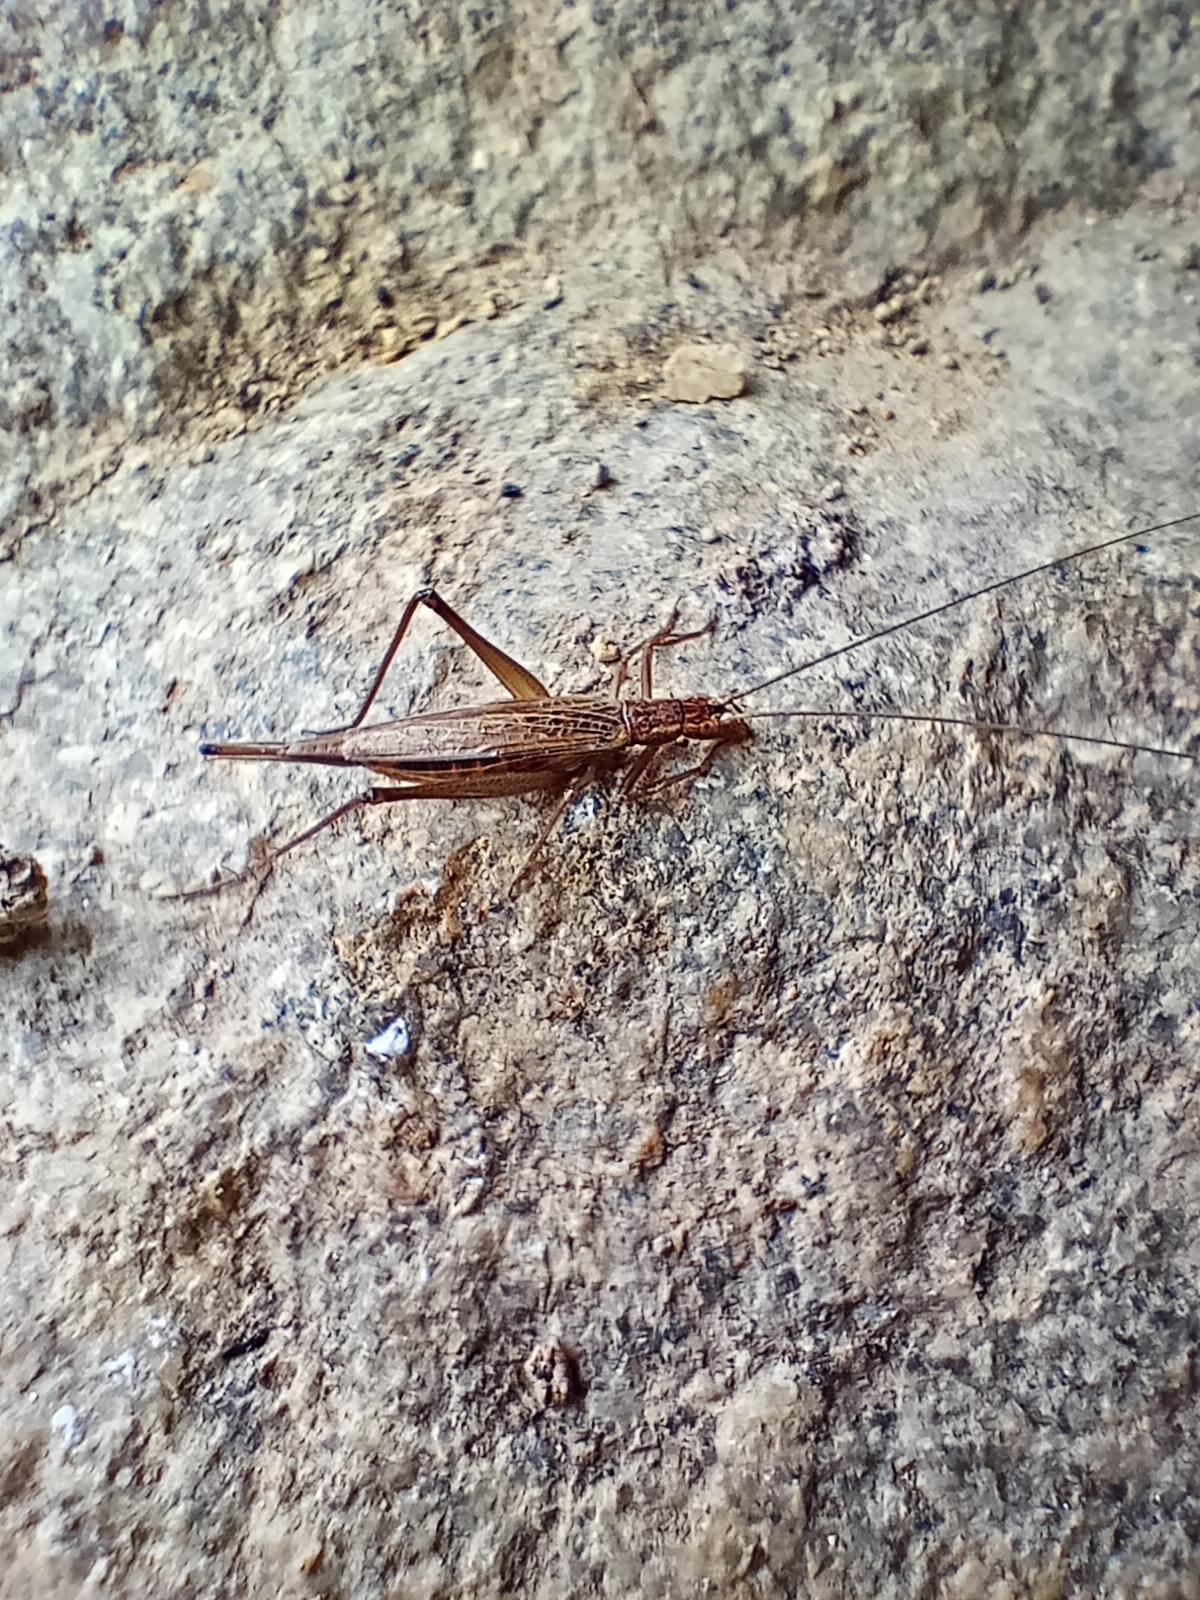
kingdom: Animalia
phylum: Arthropoda
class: Insecta
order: Orthoptera
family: Gryllidae
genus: Oecanthus
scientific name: Oecanthus pellucens
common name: Tree-cricket
